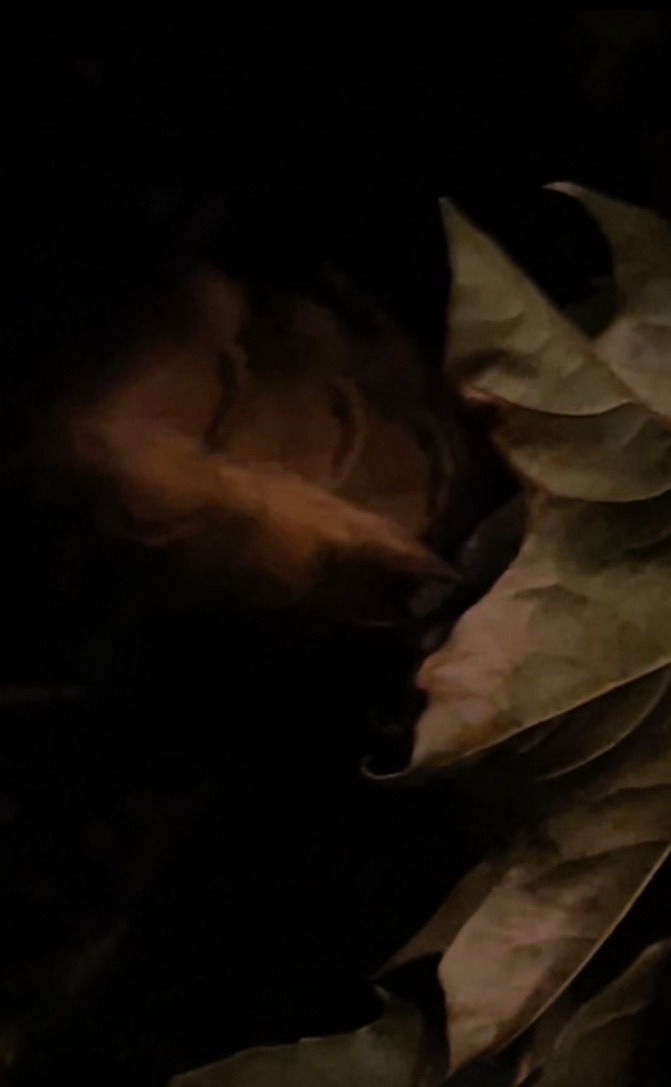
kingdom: Animalia
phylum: Arthropoda
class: Insecta
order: Lepidoptera
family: Noctuidae
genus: Noctua
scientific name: Noctua pronuba
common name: Large yellow underwing
